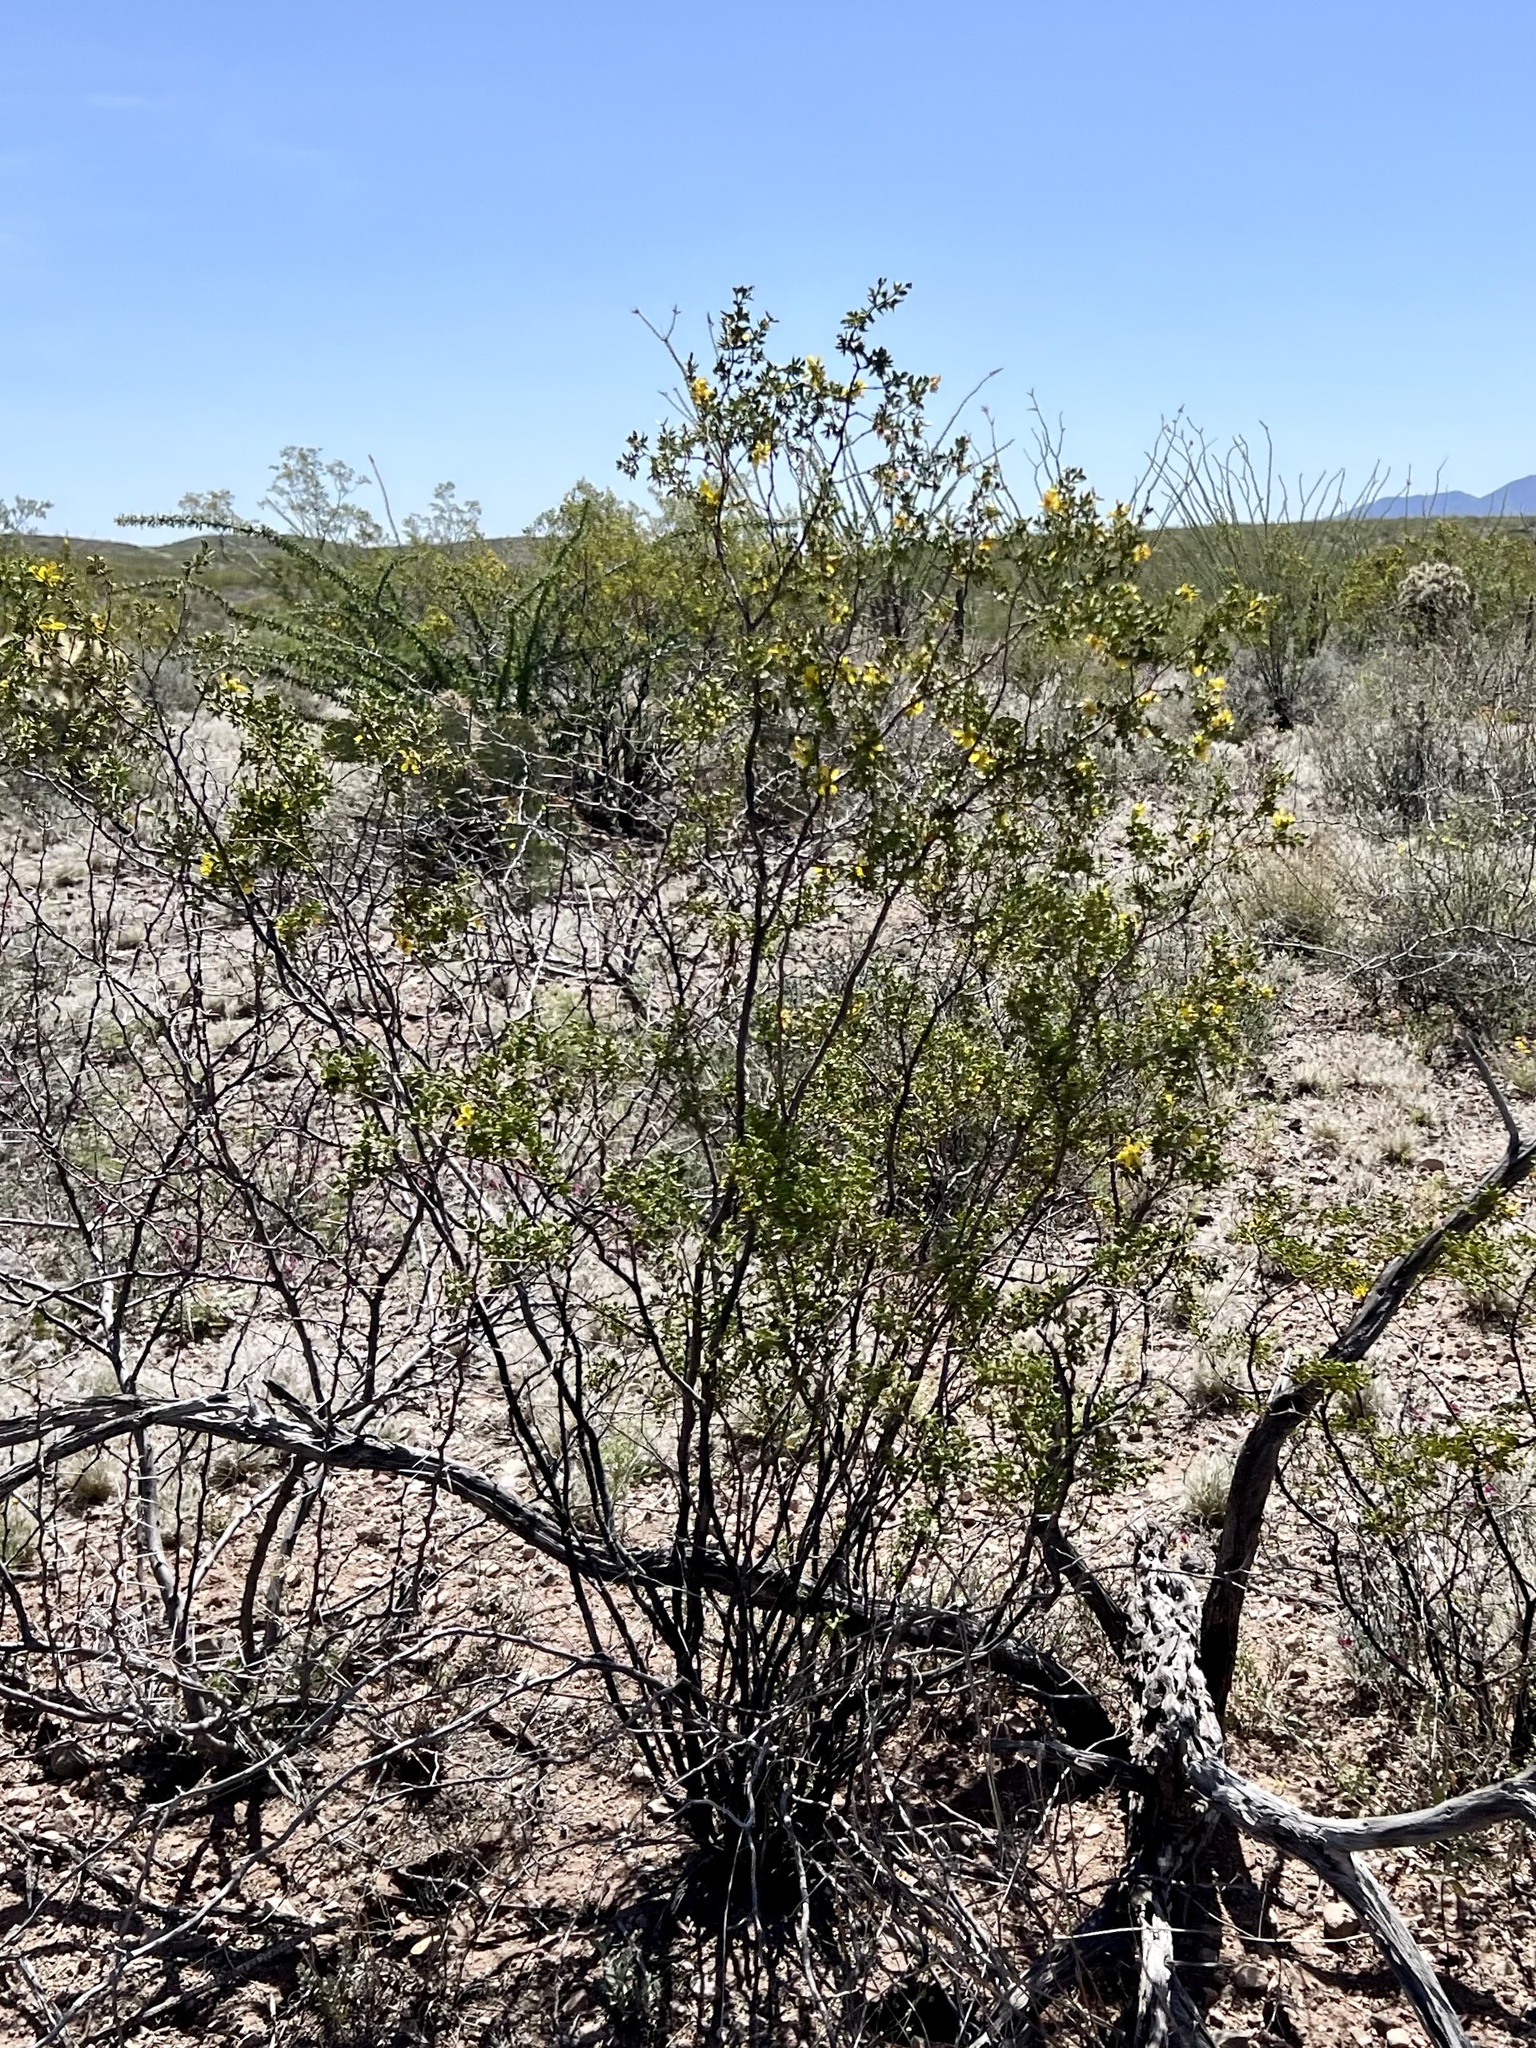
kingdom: Plantae
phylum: Tracheophyta
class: Magnoliopsida
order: Zygophyllales
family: Zygophyllaceae
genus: Larrea
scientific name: Larrea tridentata
